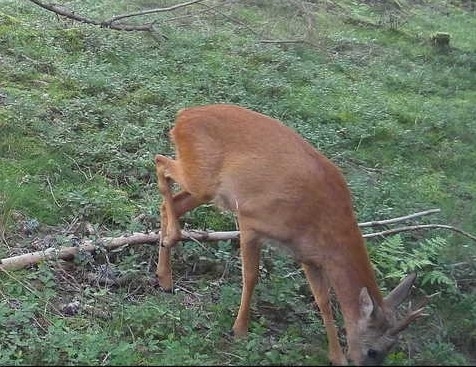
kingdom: Animalia
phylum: Chordata
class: Mammalia
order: Artiodactyla
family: Cervidae
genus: Capreolus
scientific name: Capreolus capreolus
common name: Western roe deer
